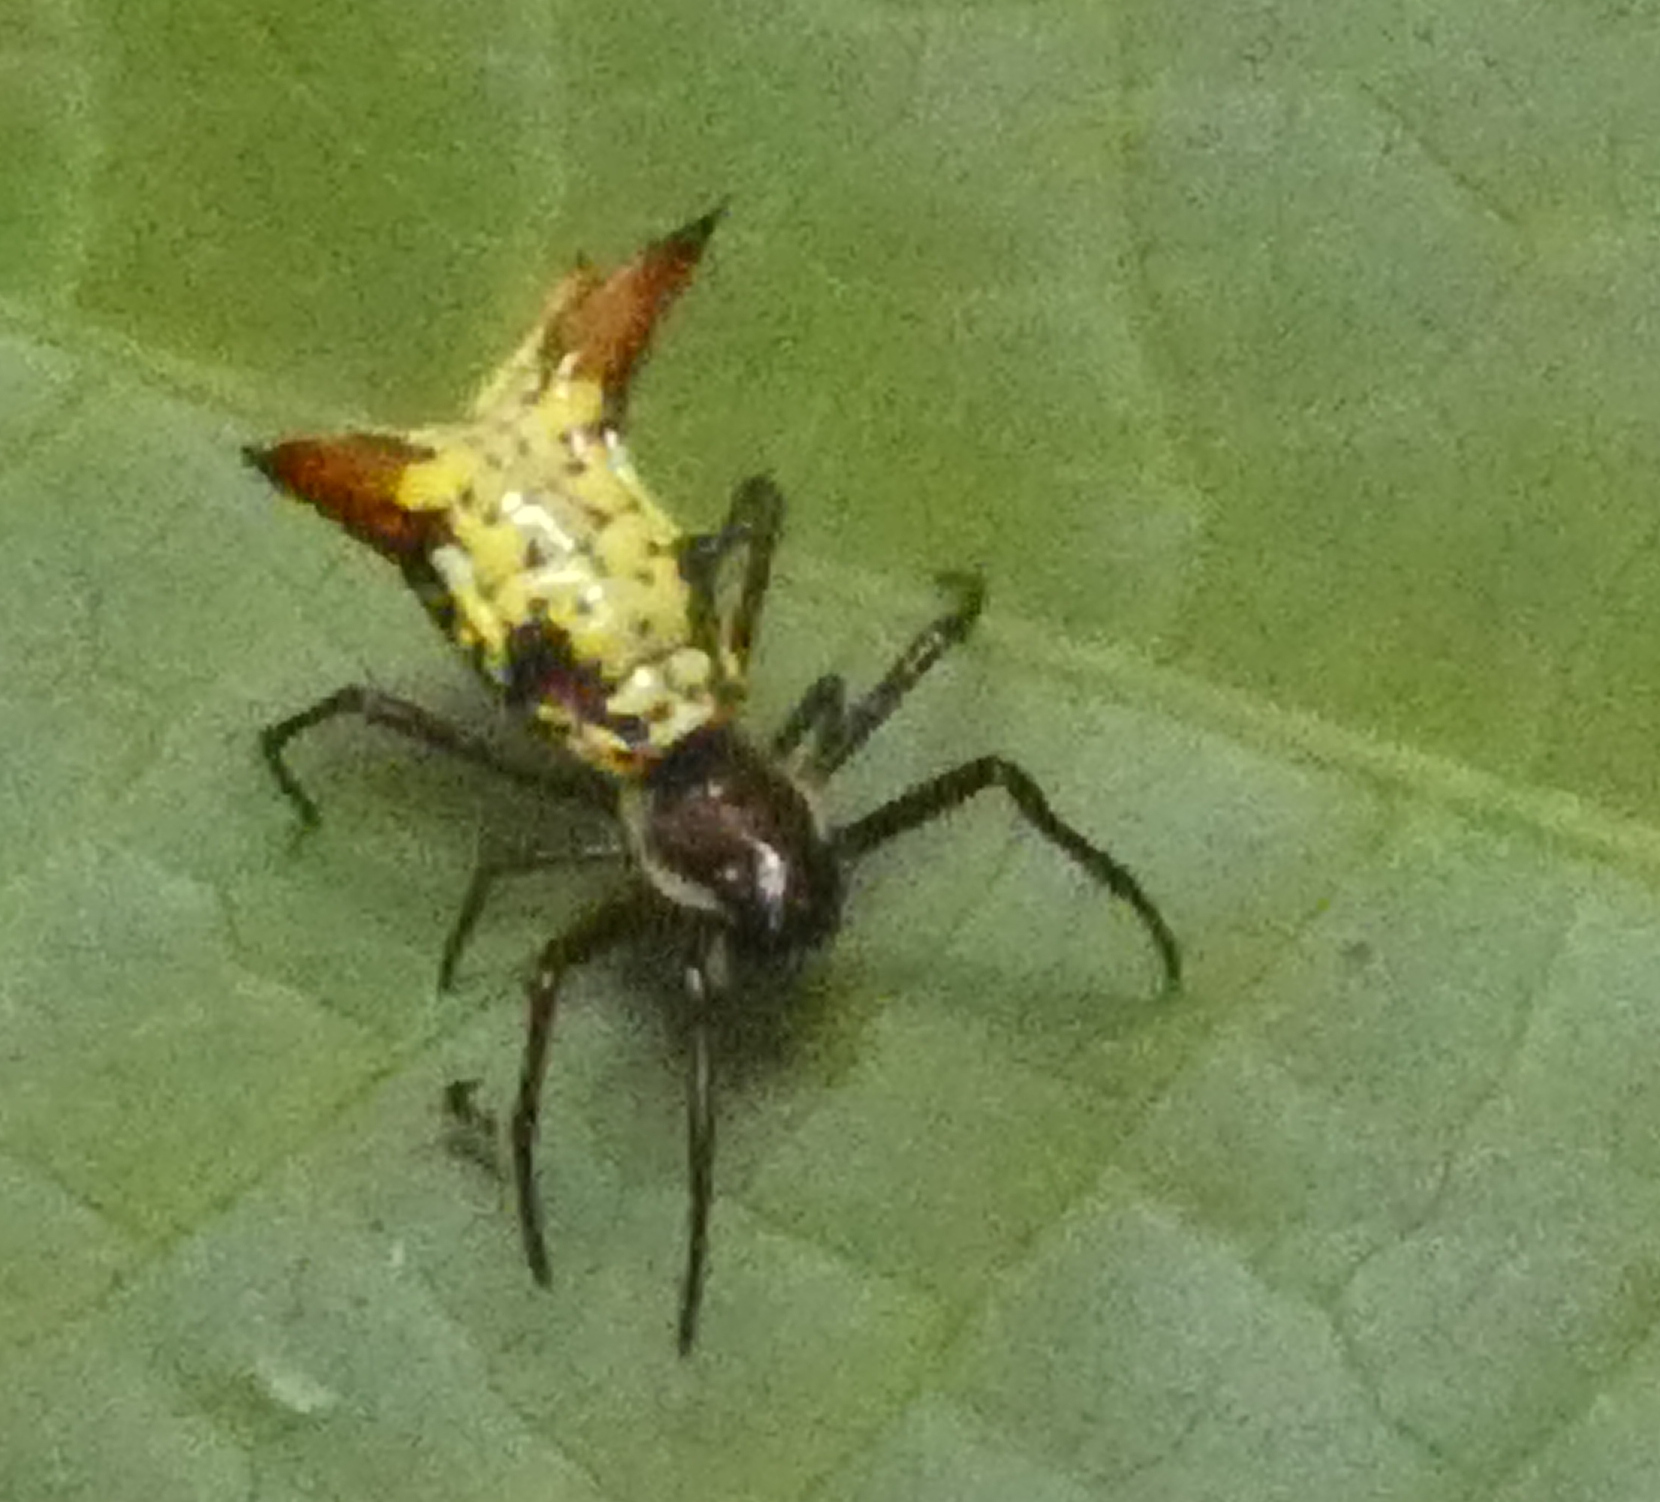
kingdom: Animalia
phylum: Arthropoda
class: Arachnida
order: Araneae
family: Araneidae
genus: Micrathena
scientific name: Micrathena fissispina
